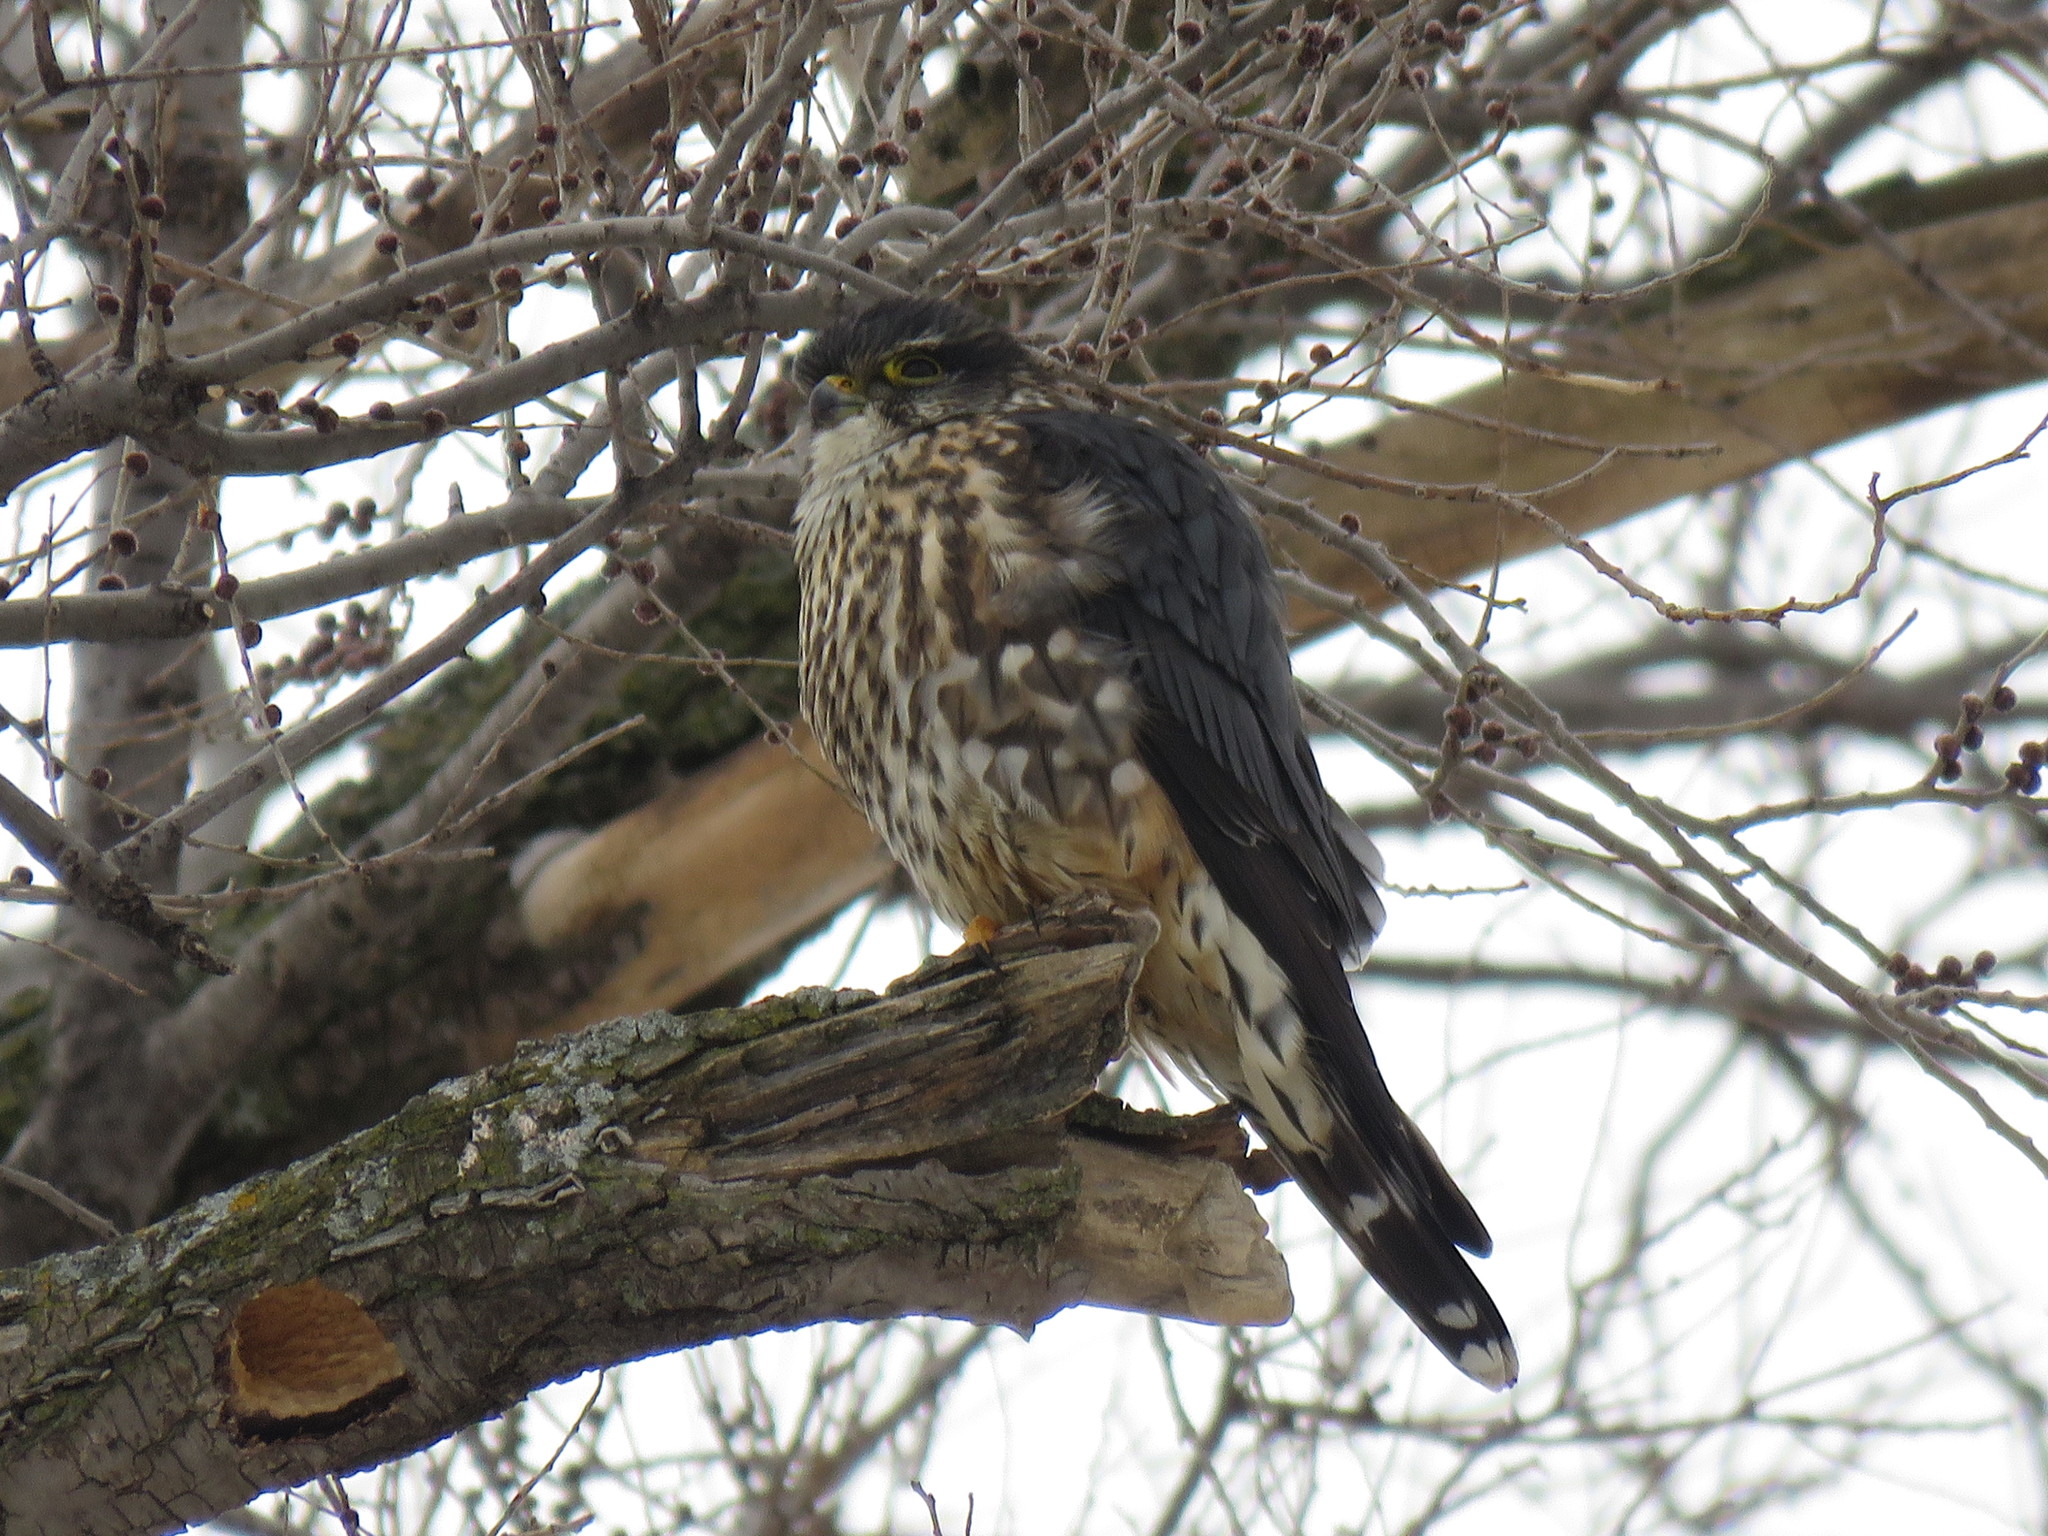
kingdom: Animalia
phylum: Chordata
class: Aves
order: Falconiformes
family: Falconidae
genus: Falco
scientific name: Falco columbarius
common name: Merlin
